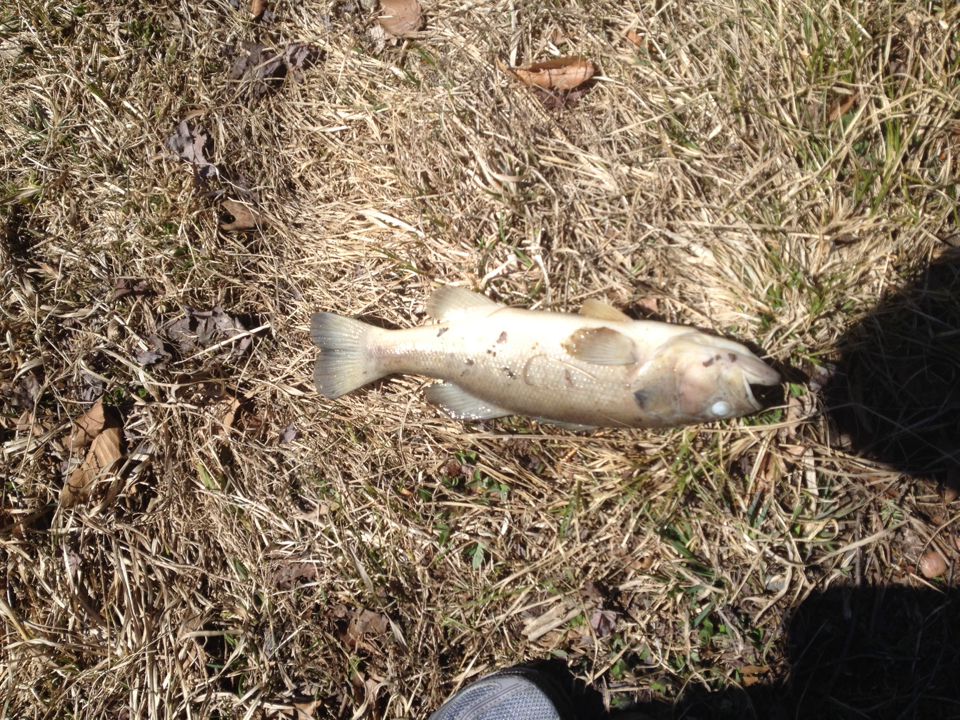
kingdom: Animalia
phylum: Chordata
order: Perciformes
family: Centrarchidae
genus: Micropterus
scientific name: Micropterus
